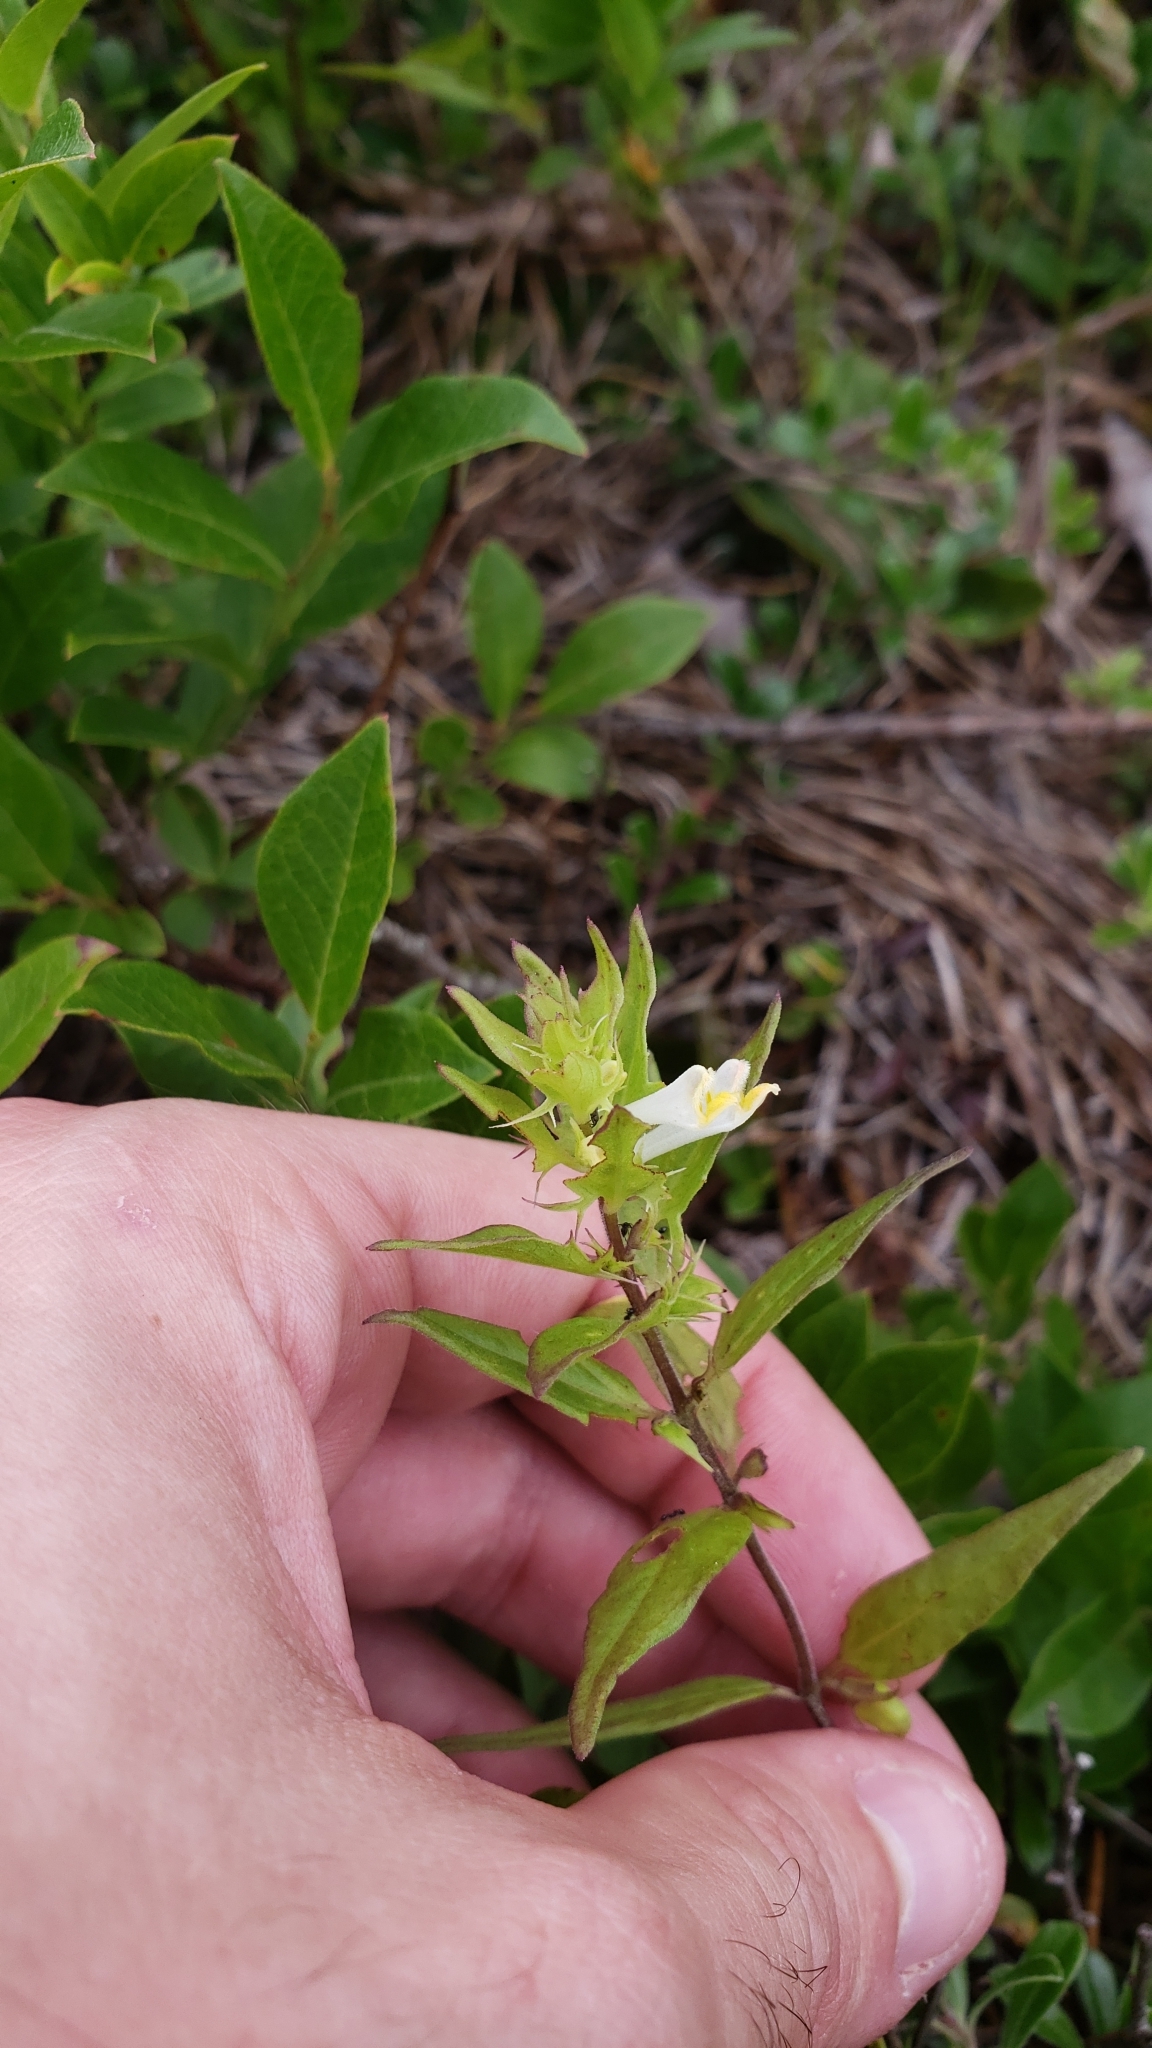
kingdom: Plantae
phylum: Tracheophyta
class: Magnoliopsida
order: Lamiales
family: Orobanchaceae
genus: Melampyrum
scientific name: Melampyrum lineare
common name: American cow-wheat
